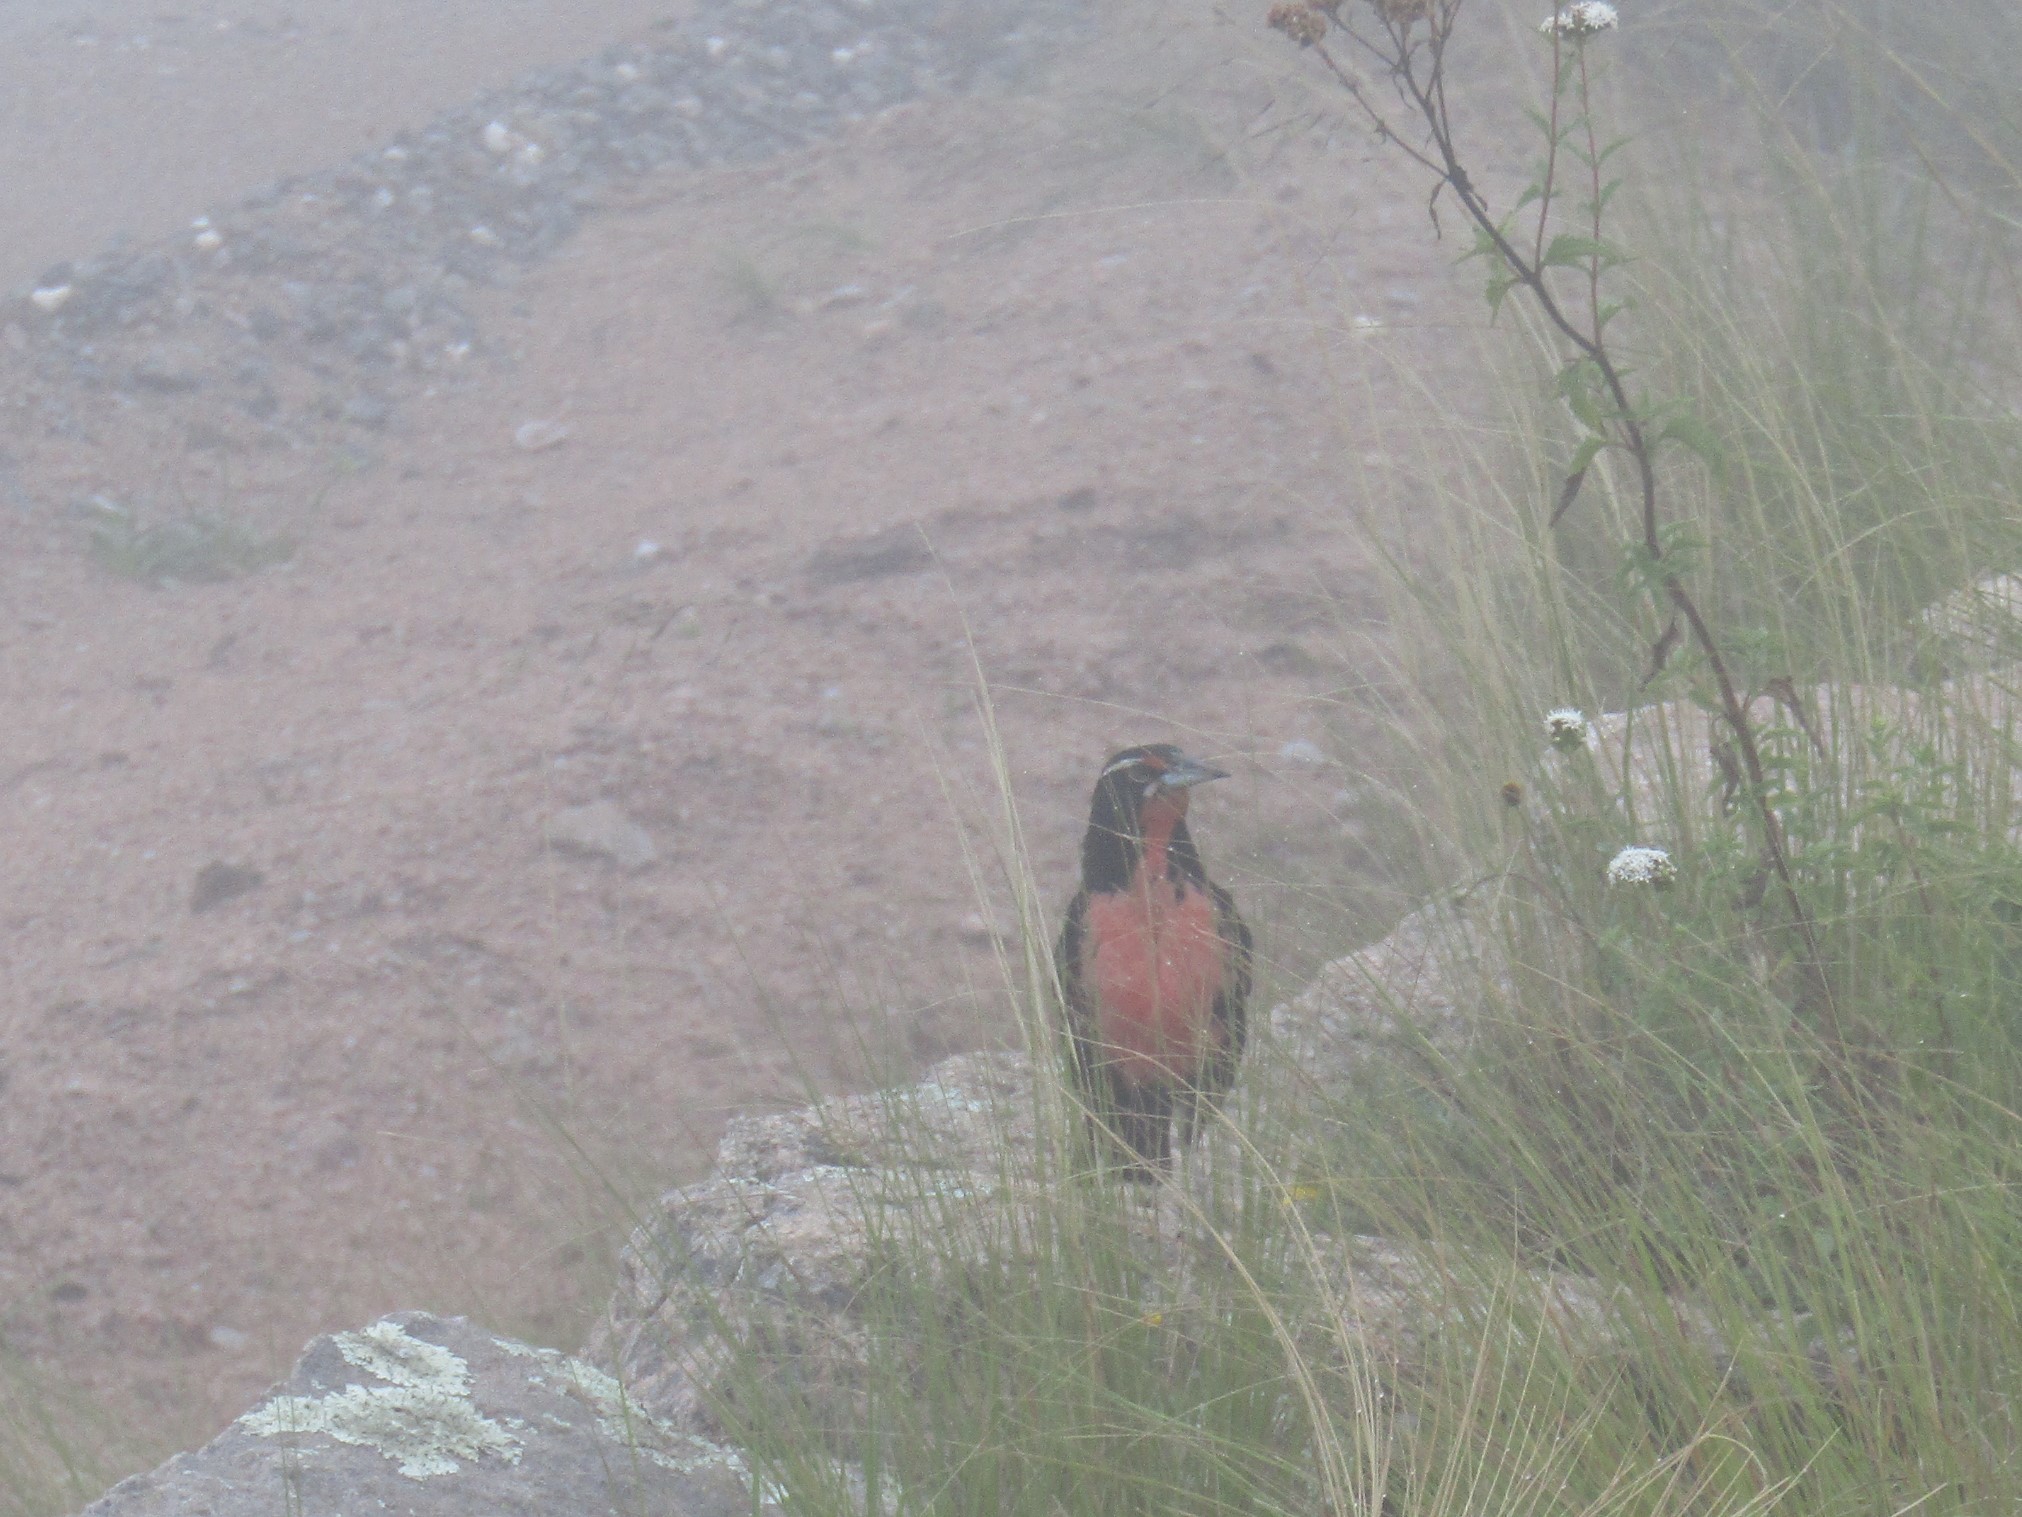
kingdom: Animalia
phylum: Chordata
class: Aves
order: Passeriformes
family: Icteridae
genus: Sturnella
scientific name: Sturnella loyca
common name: Long-tailed meadowlark
